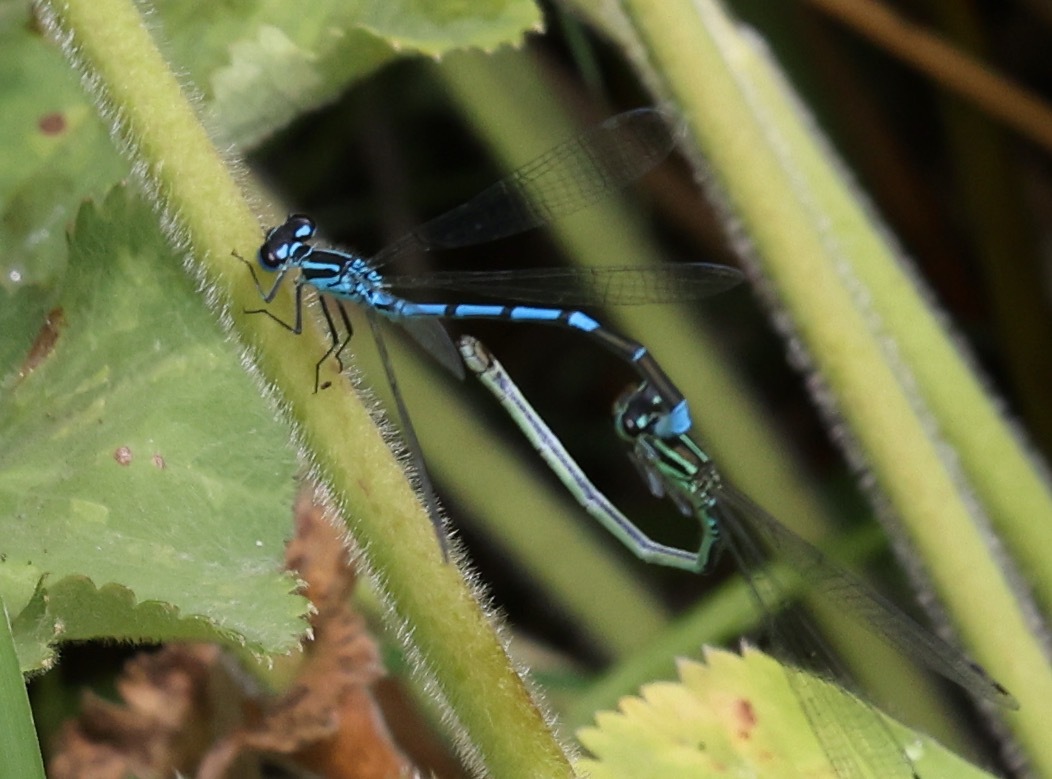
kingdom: Animalia
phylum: Arthropoda
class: Insecta
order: Odonata
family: Coenagrionidae
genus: Coenagrion
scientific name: Coenagrion puella
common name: Azure damselfly
